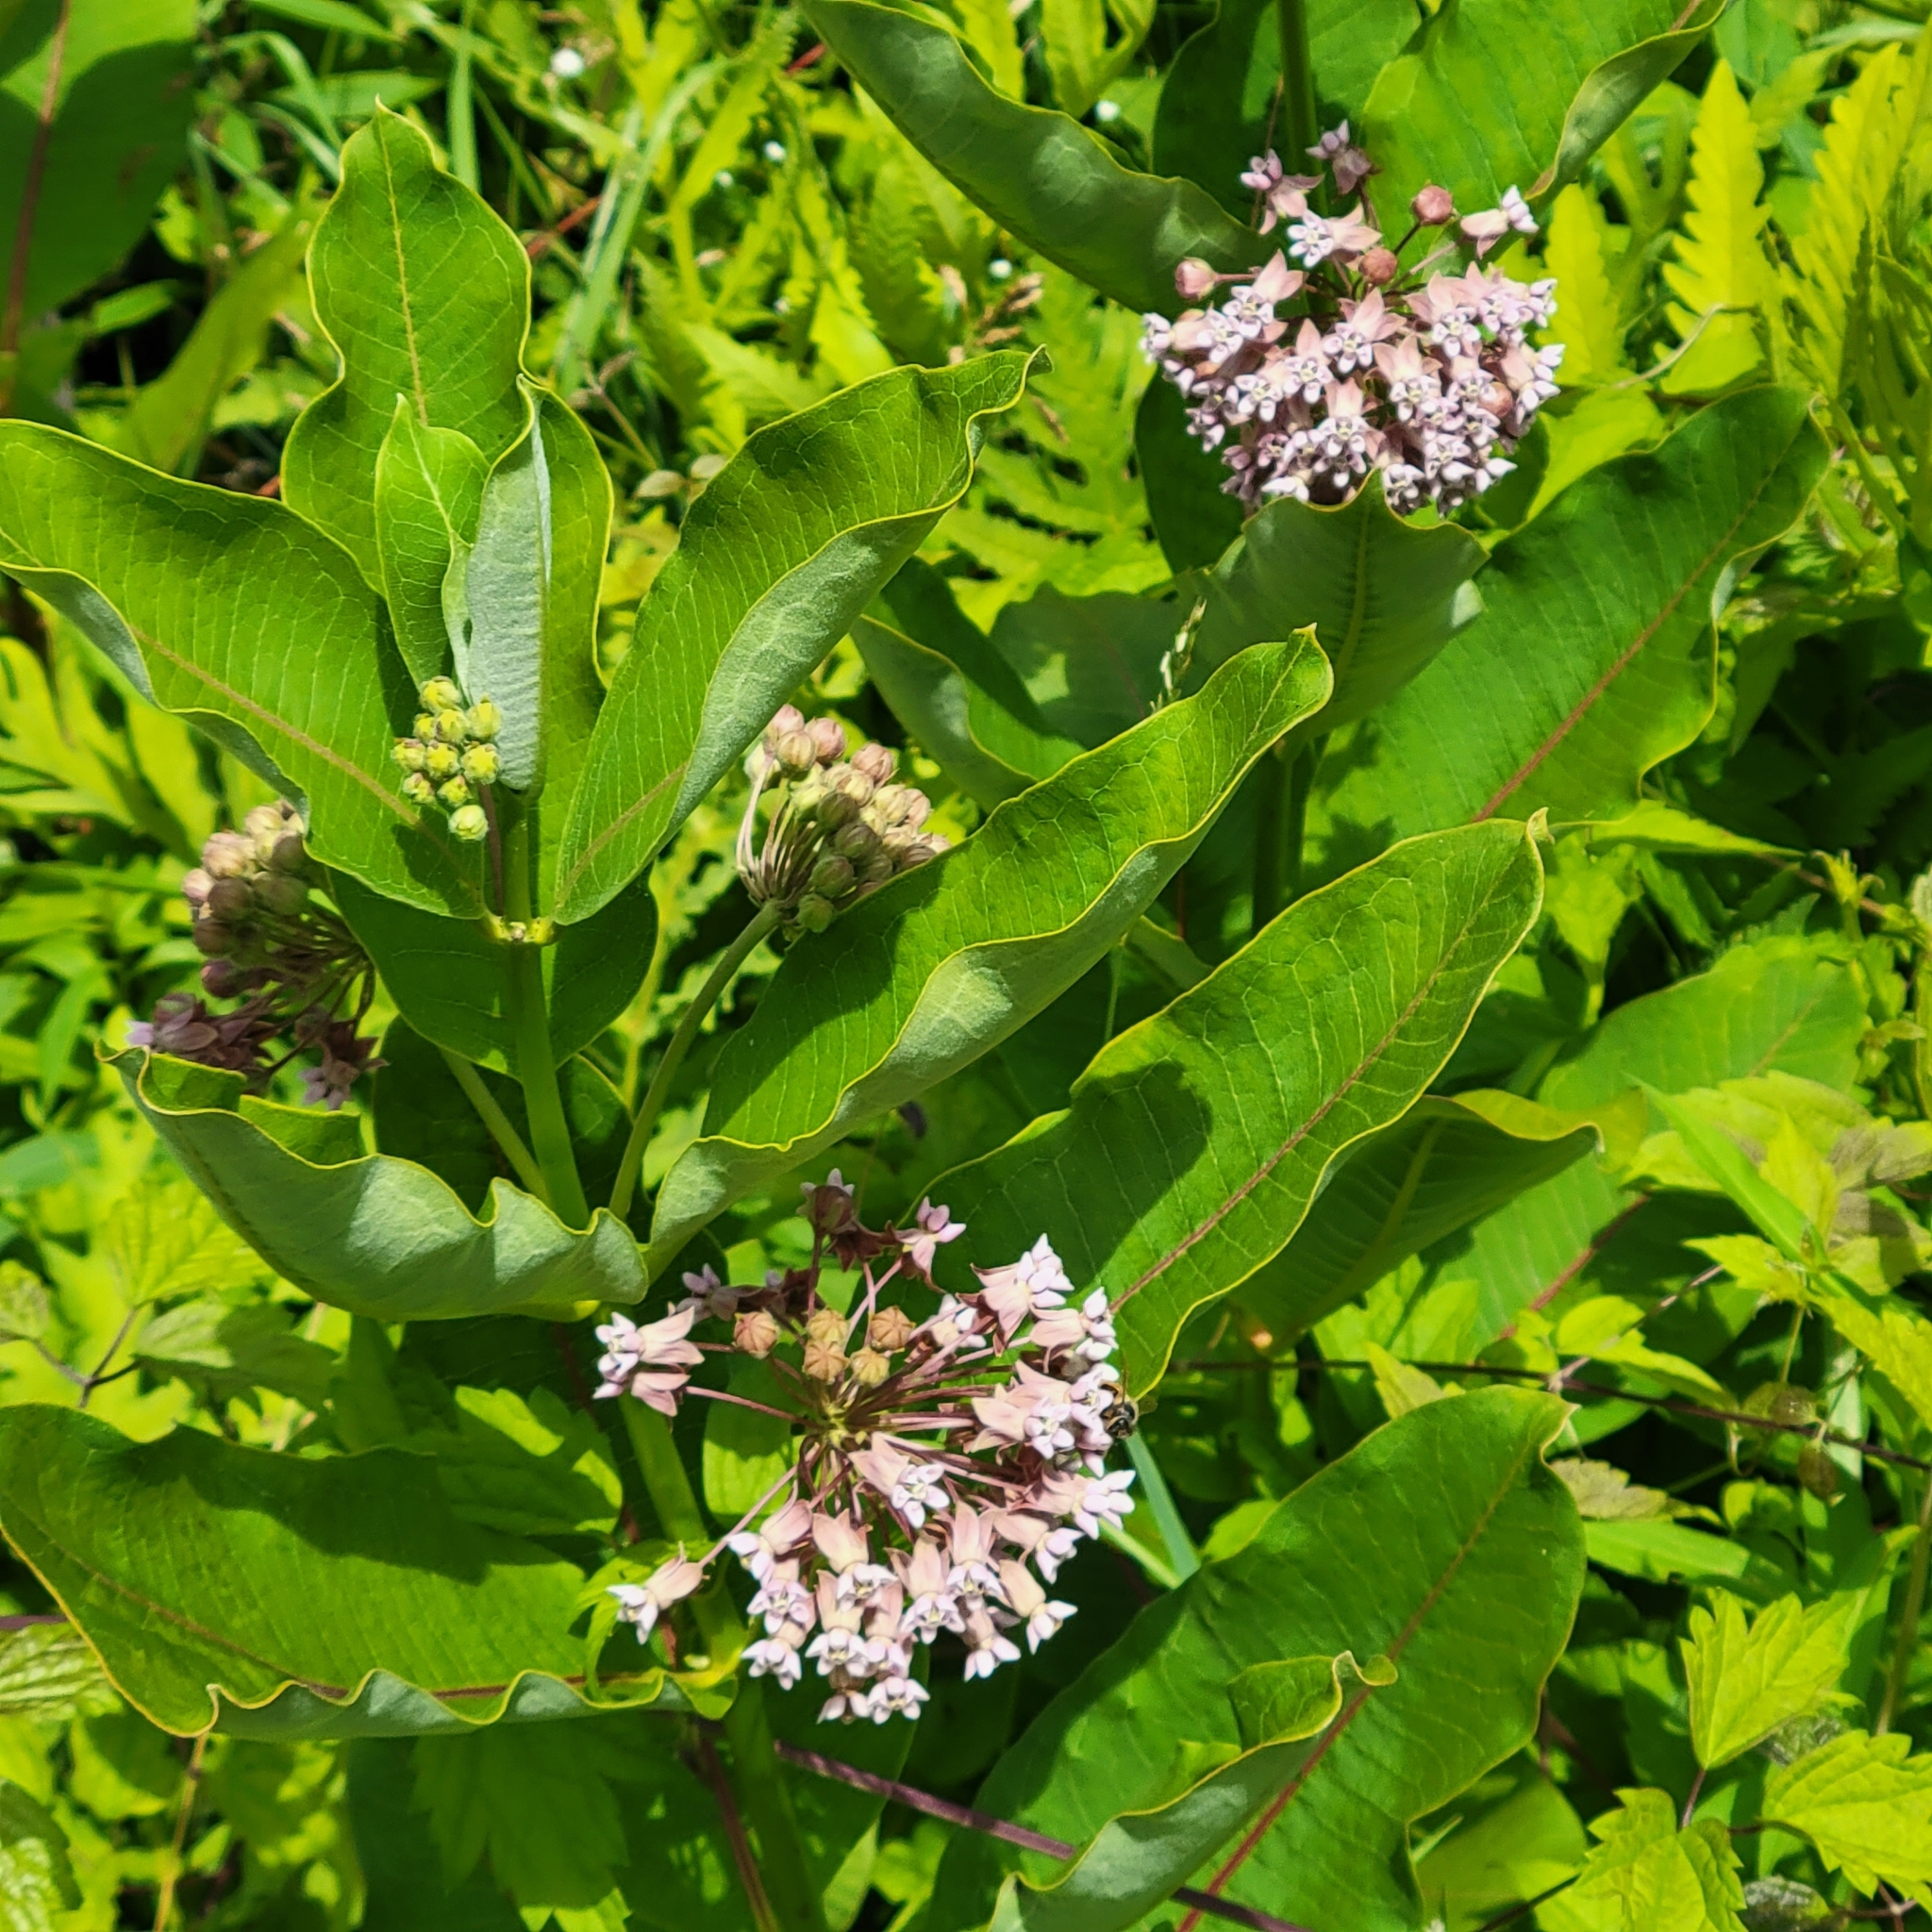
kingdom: Plantae
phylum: Tracheophyta
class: Magnoliopsida
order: Gentianales
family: Apocynaceae
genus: Asclepias
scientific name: Asclepias syriaca
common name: Common milkweed
